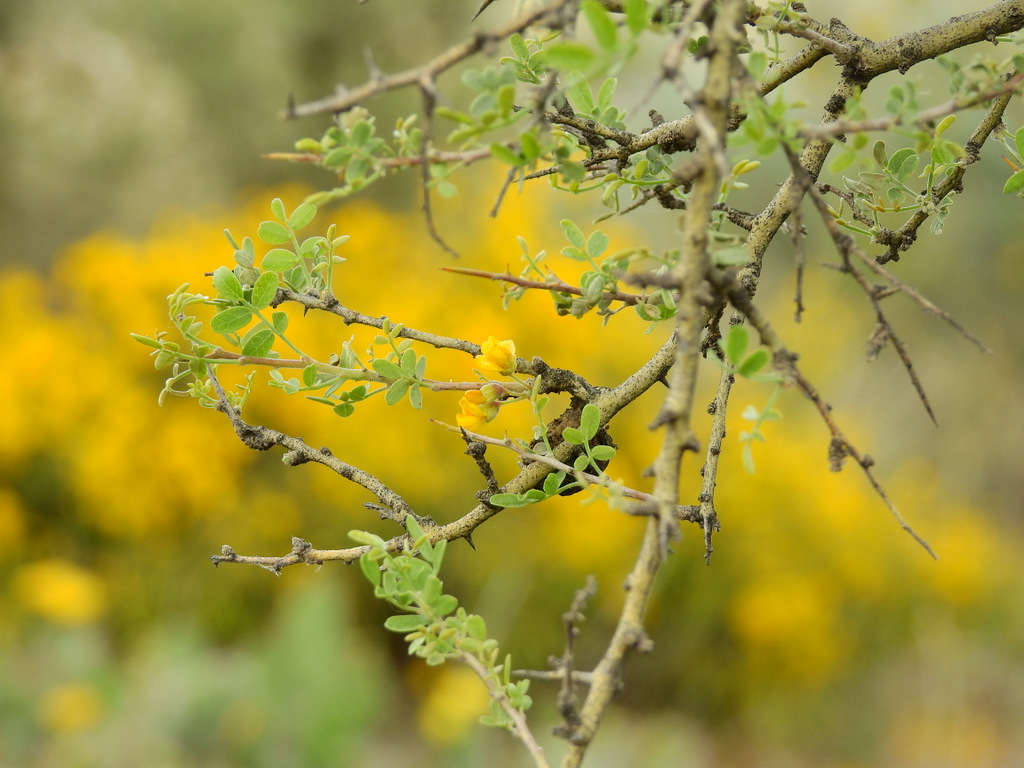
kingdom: Plantae
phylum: Tracheophyta
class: Magnoliopsida
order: Fabales
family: Fabaceae
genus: Geoffroea
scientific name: Geoffroea decorticans
